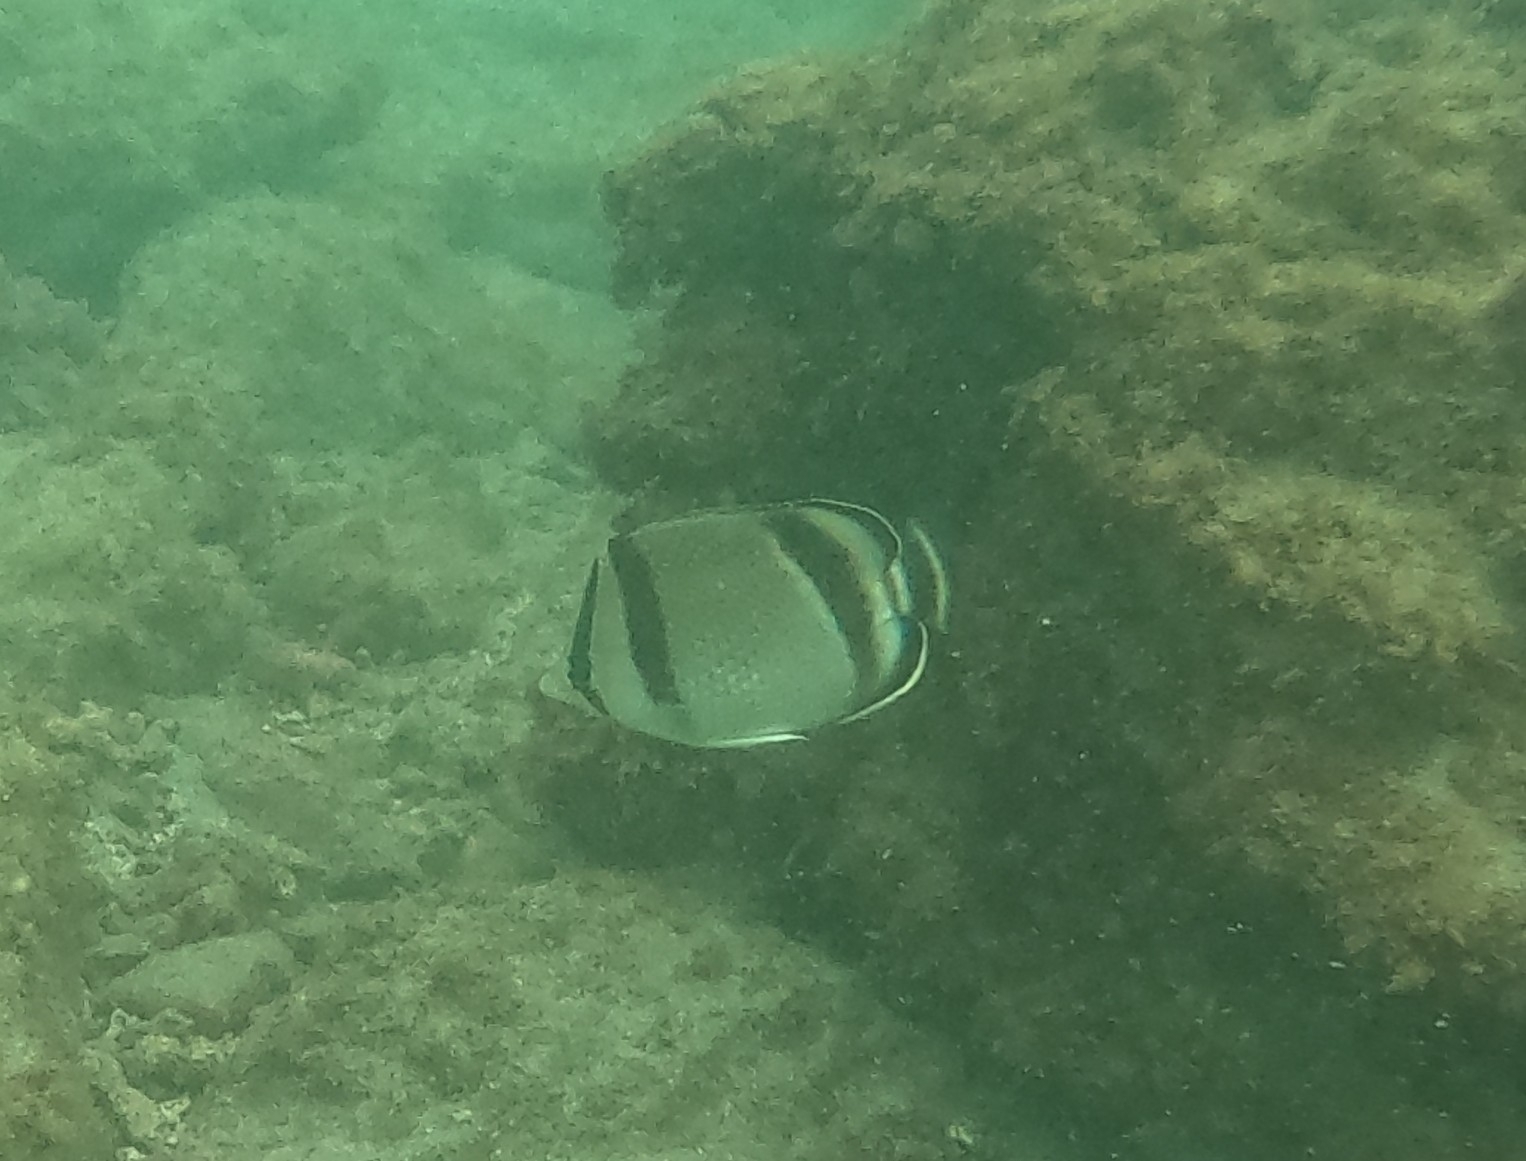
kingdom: Animalia
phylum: Chordata
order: Perciformes
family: Chaetodontidae
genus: Chaetodon
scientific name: Chaetodon humeralis
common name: Threebanded butterflyfish
